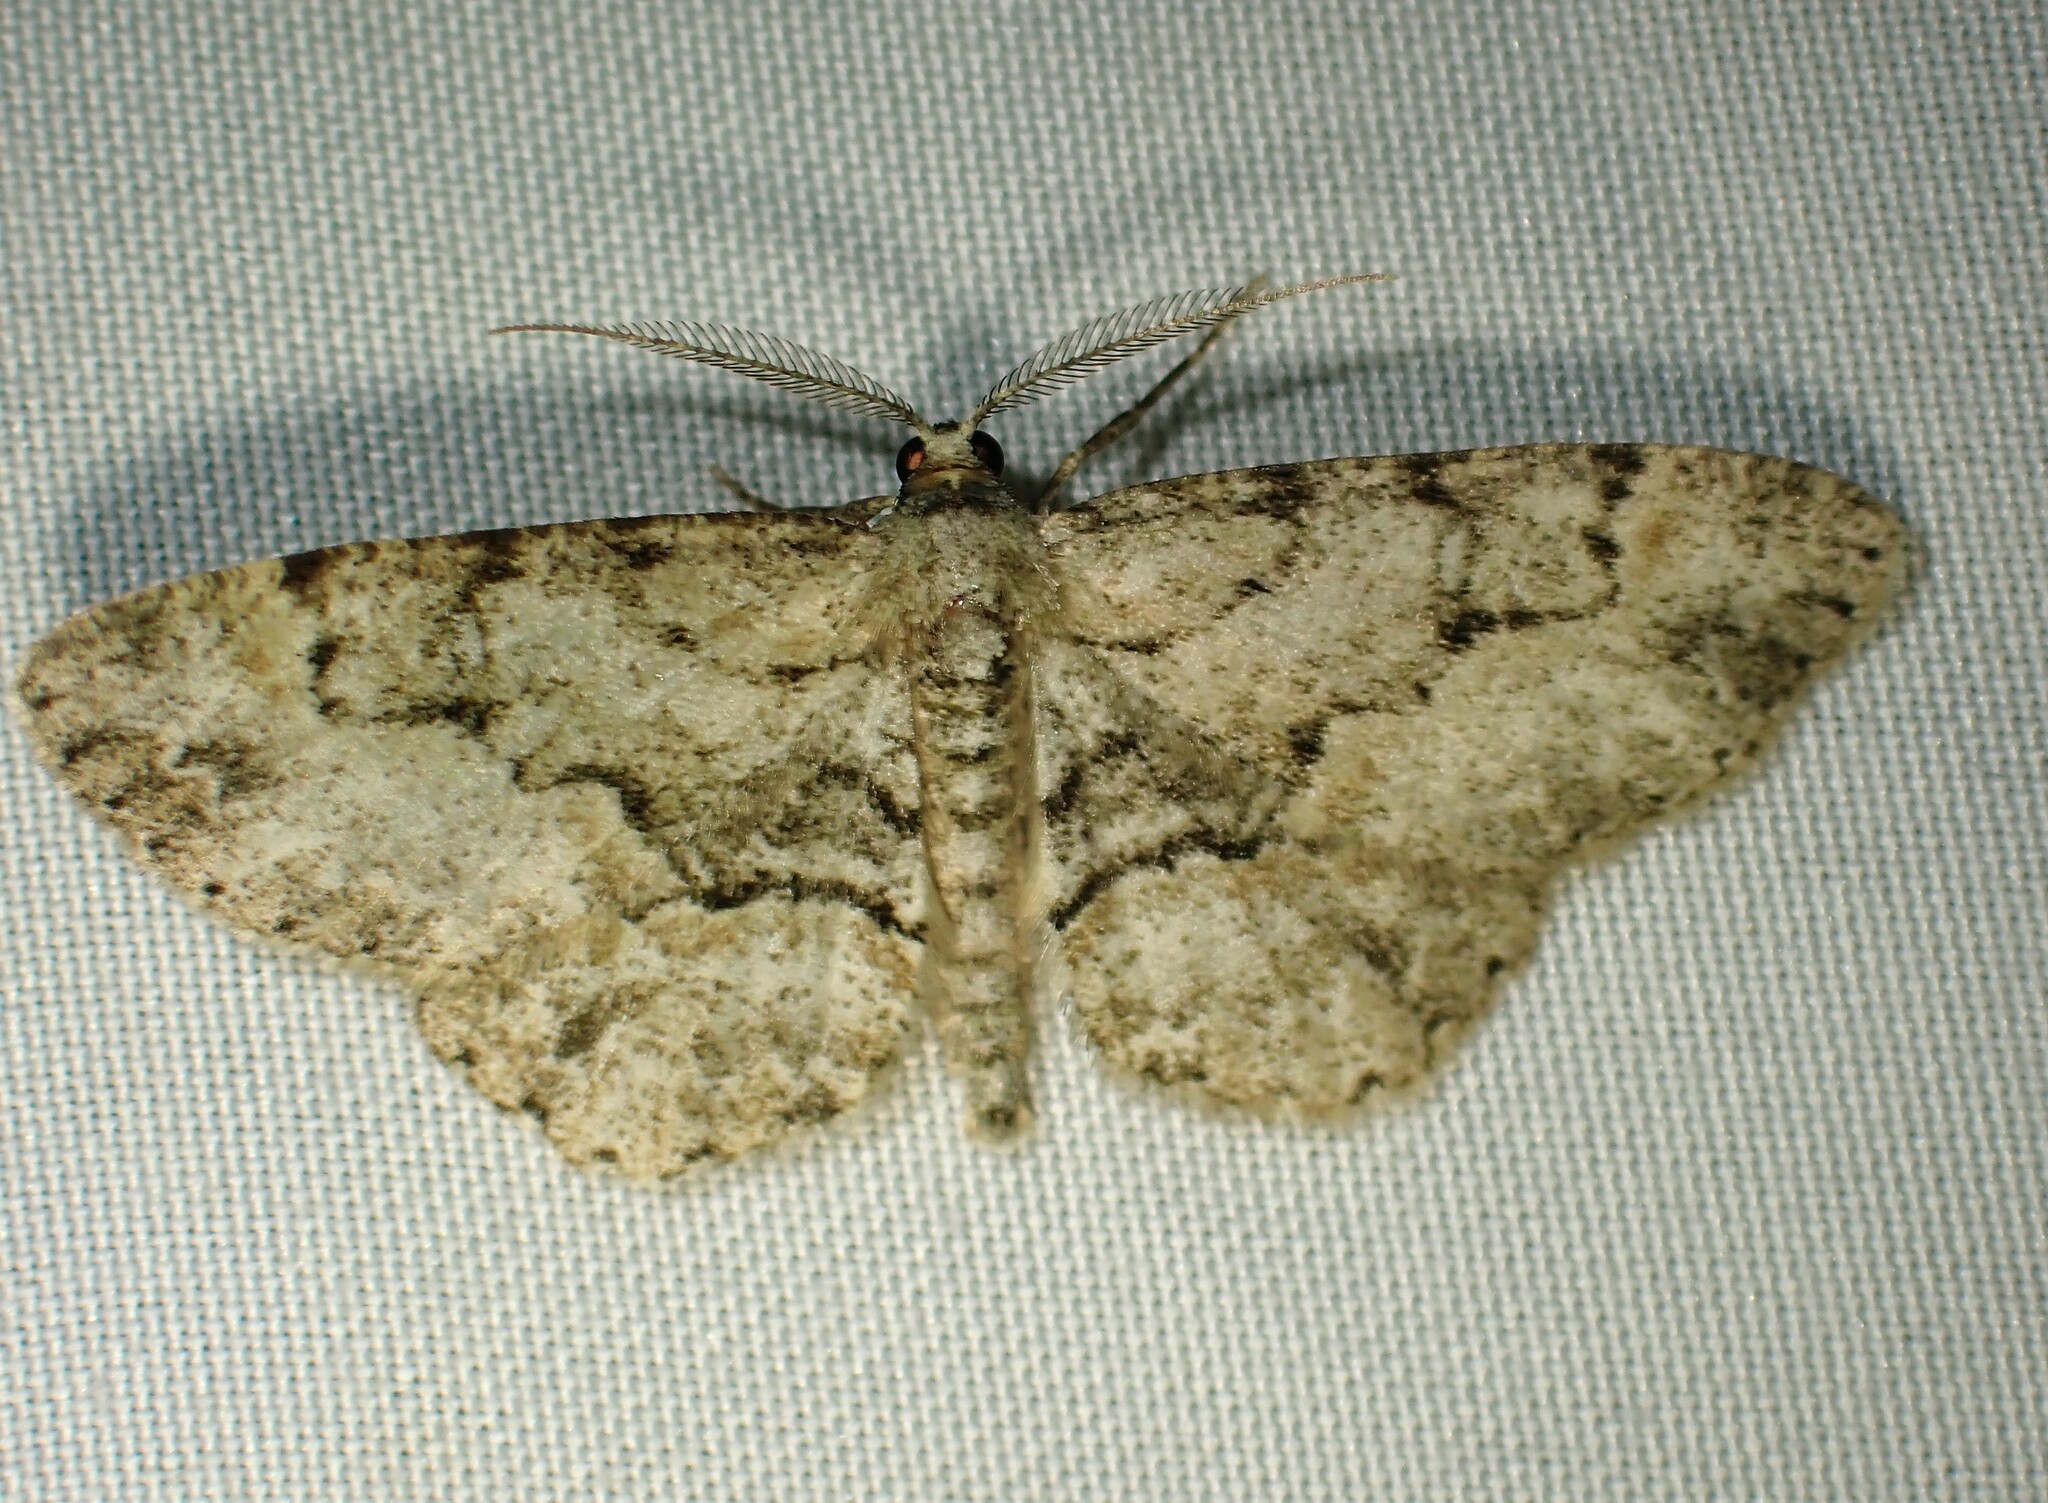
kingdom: Animalia
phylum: Arthropoda
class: Insecta
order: Lepidoptera
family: Geometridae
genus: Iridopsis
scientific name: Iridopsis ephyraria
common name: Pale-winged gray
